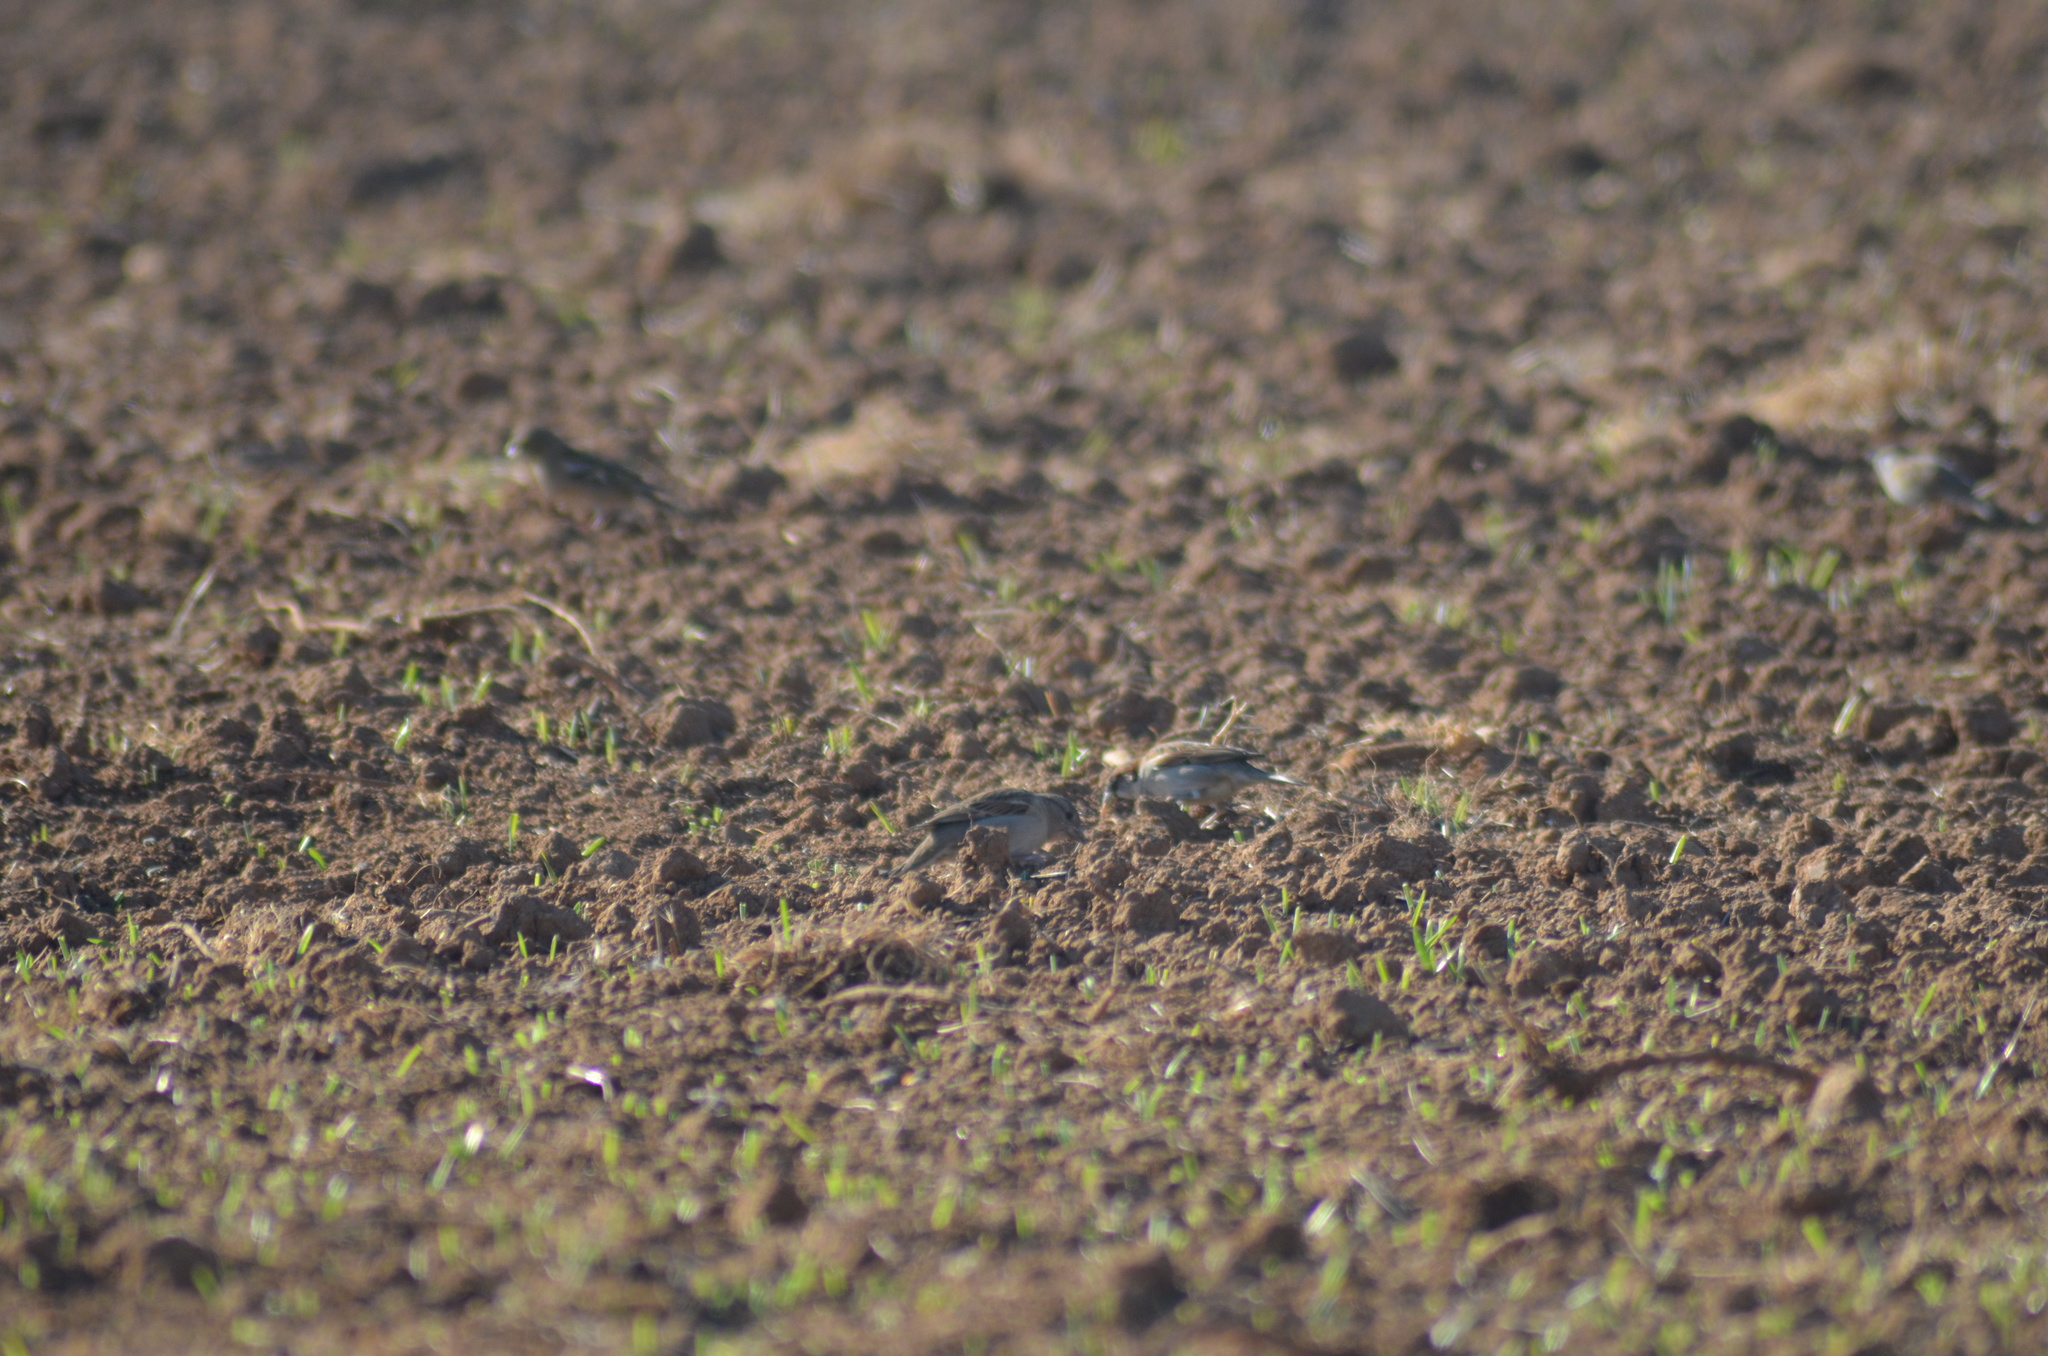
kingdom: Animalia
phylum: Chordata
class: Aves
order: Passeriformes
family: Passeridae
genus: Passer
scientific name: Passer domesticus
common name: House sparrow
